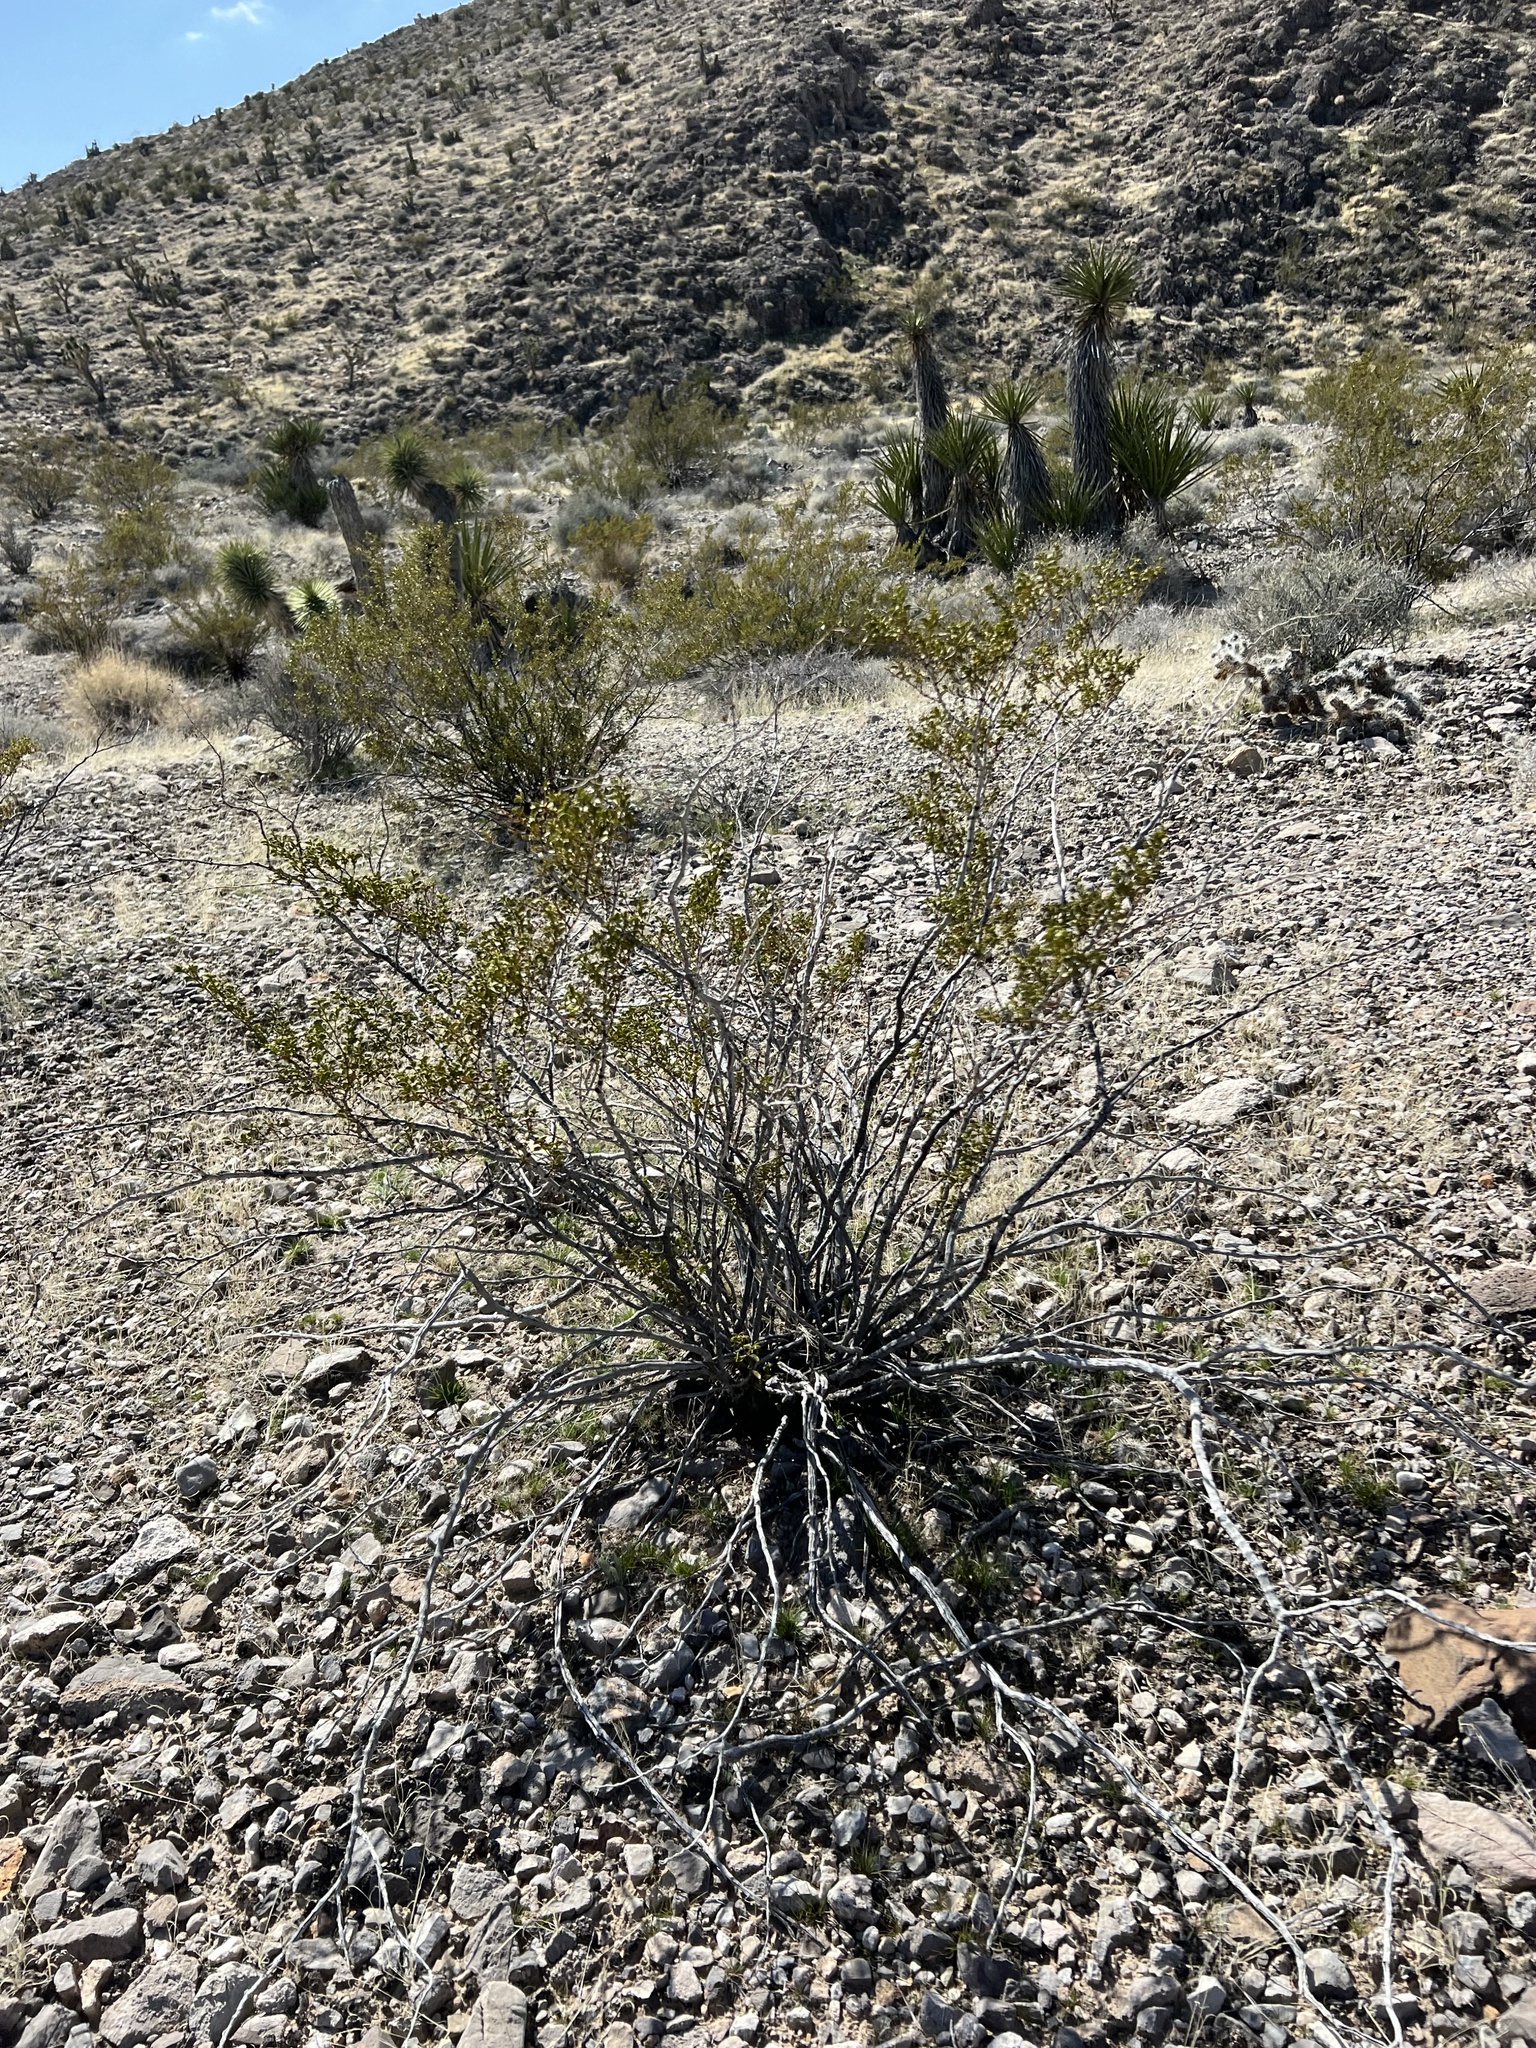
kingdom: Plantae
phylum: Tracheophyta
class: Magnoliopsida
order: Zygophyllales
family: Zygophyllaceae
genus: Larrea
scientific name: Larrea tridentata
